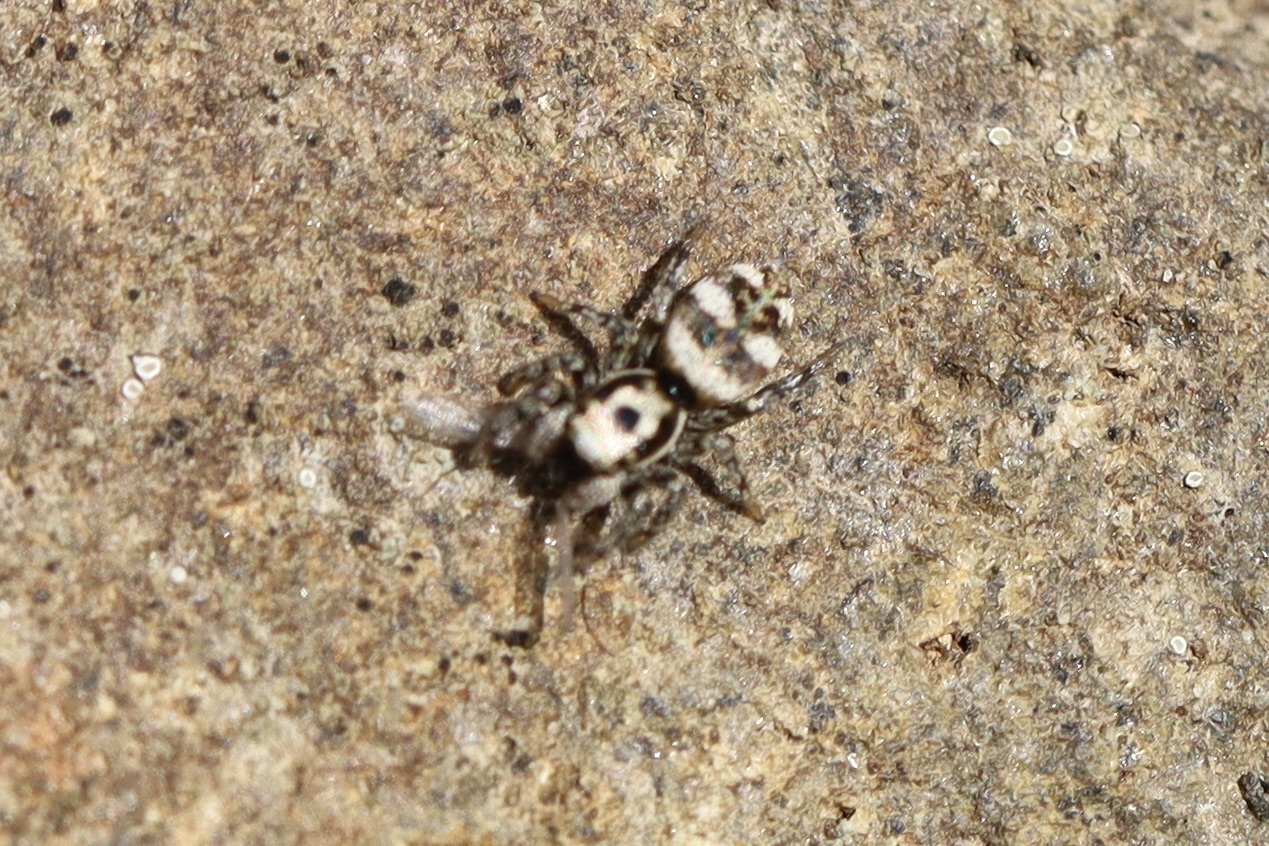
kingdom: Animalia
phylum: Arthropoda
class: Arachnida
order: Araneae
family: Salticidae
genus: Salticus
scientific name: Salticus scenicus
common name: Zebra jumper
